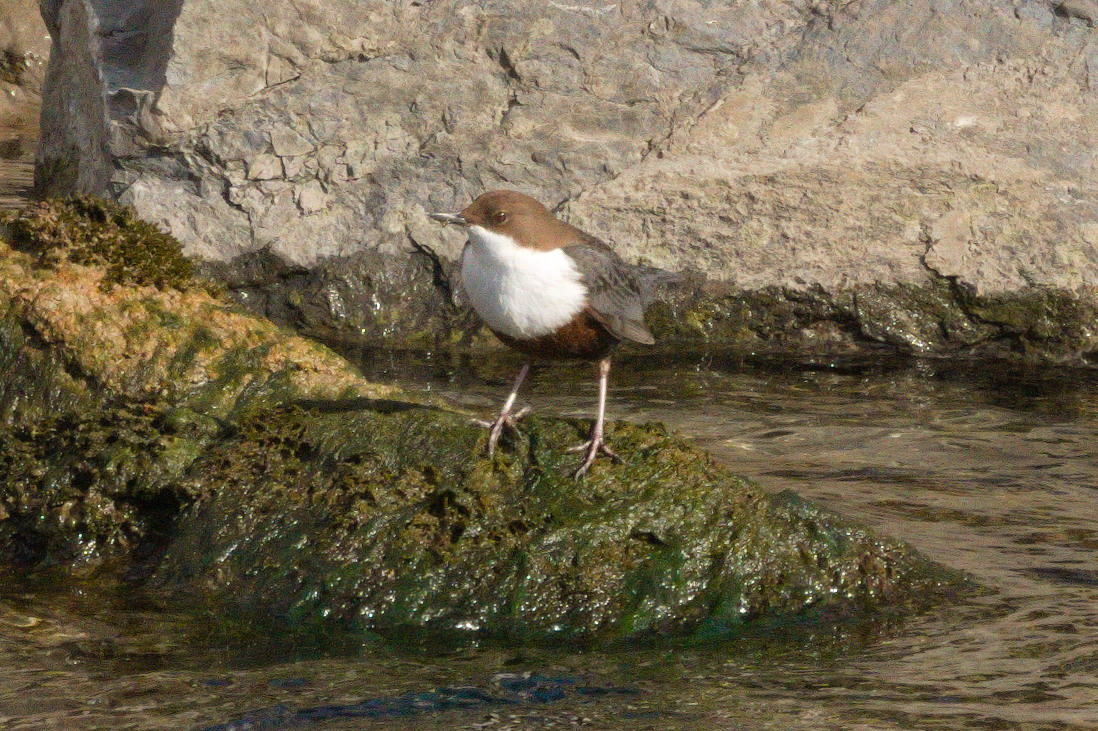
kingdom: Animalia
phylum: Chordata
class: Aves
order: Passeriformes
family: Cinclidae
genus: Cinclus
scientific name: Cinclus cinclus
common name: White-throated dipper
